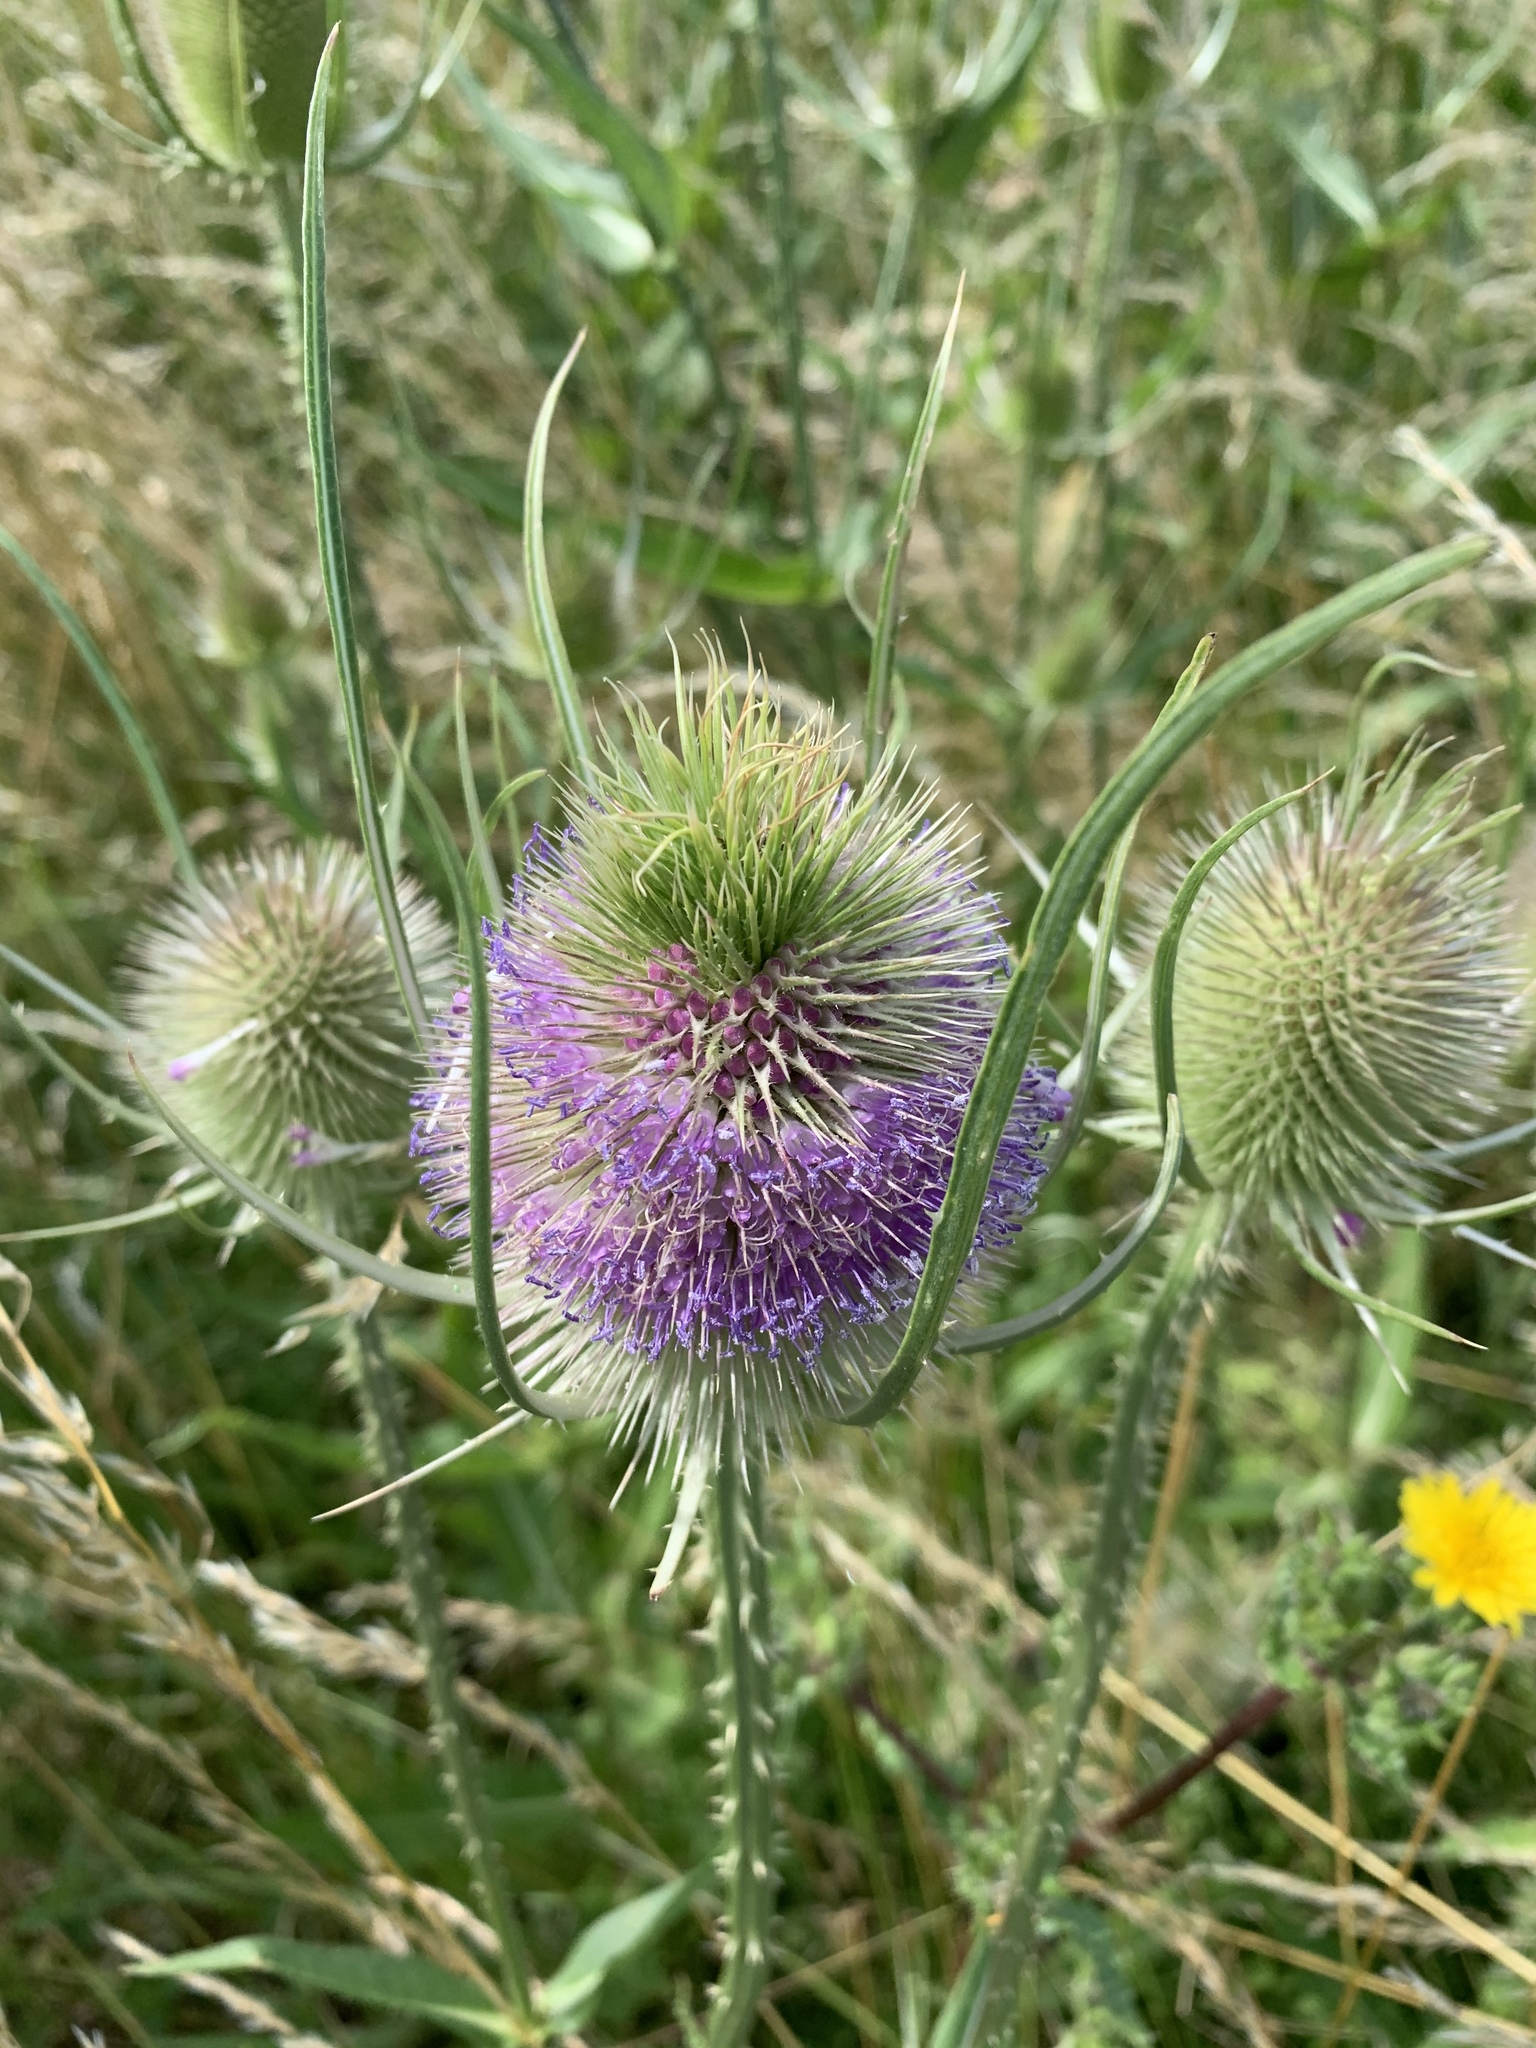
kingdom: Plantae
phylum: Tracheophyta
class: Magnoliopsida
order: Dipsacales
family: Caprifoliaceae
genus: Dipsacus
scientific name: Dipsacus fullonum
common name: Teasel
